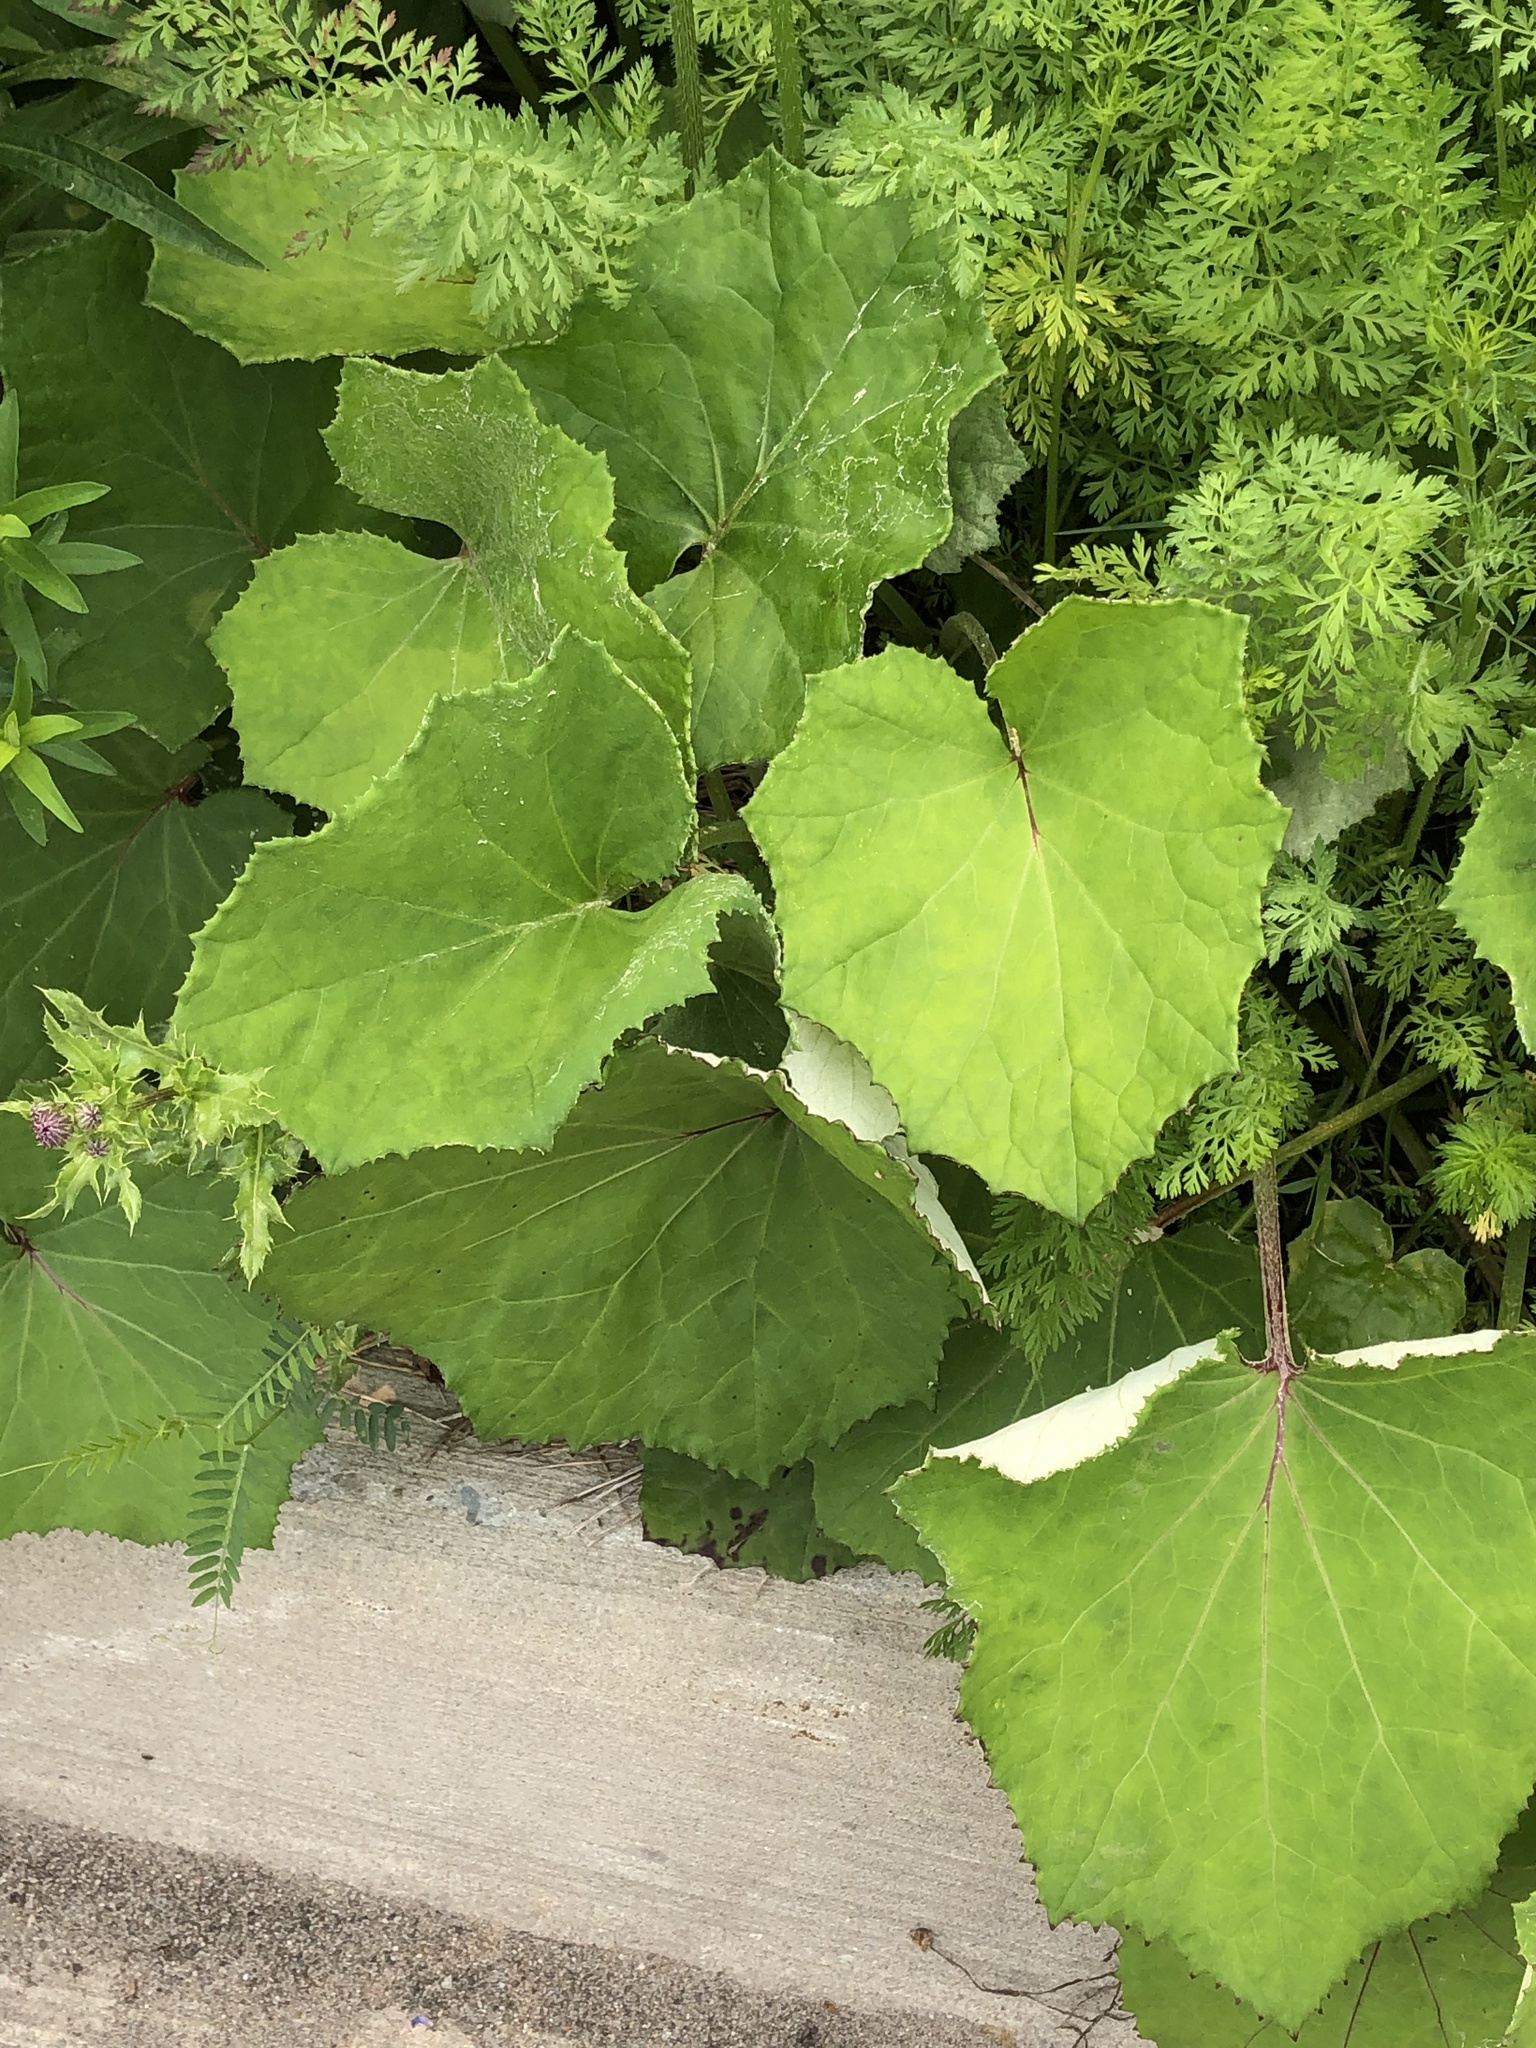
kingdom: Plantae
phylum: Tracheophyta
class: Magnoliopsida
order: Asterales
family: Asteraceae
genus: Tussilago
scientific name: Tussilago farfara
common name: Coltsfoot
